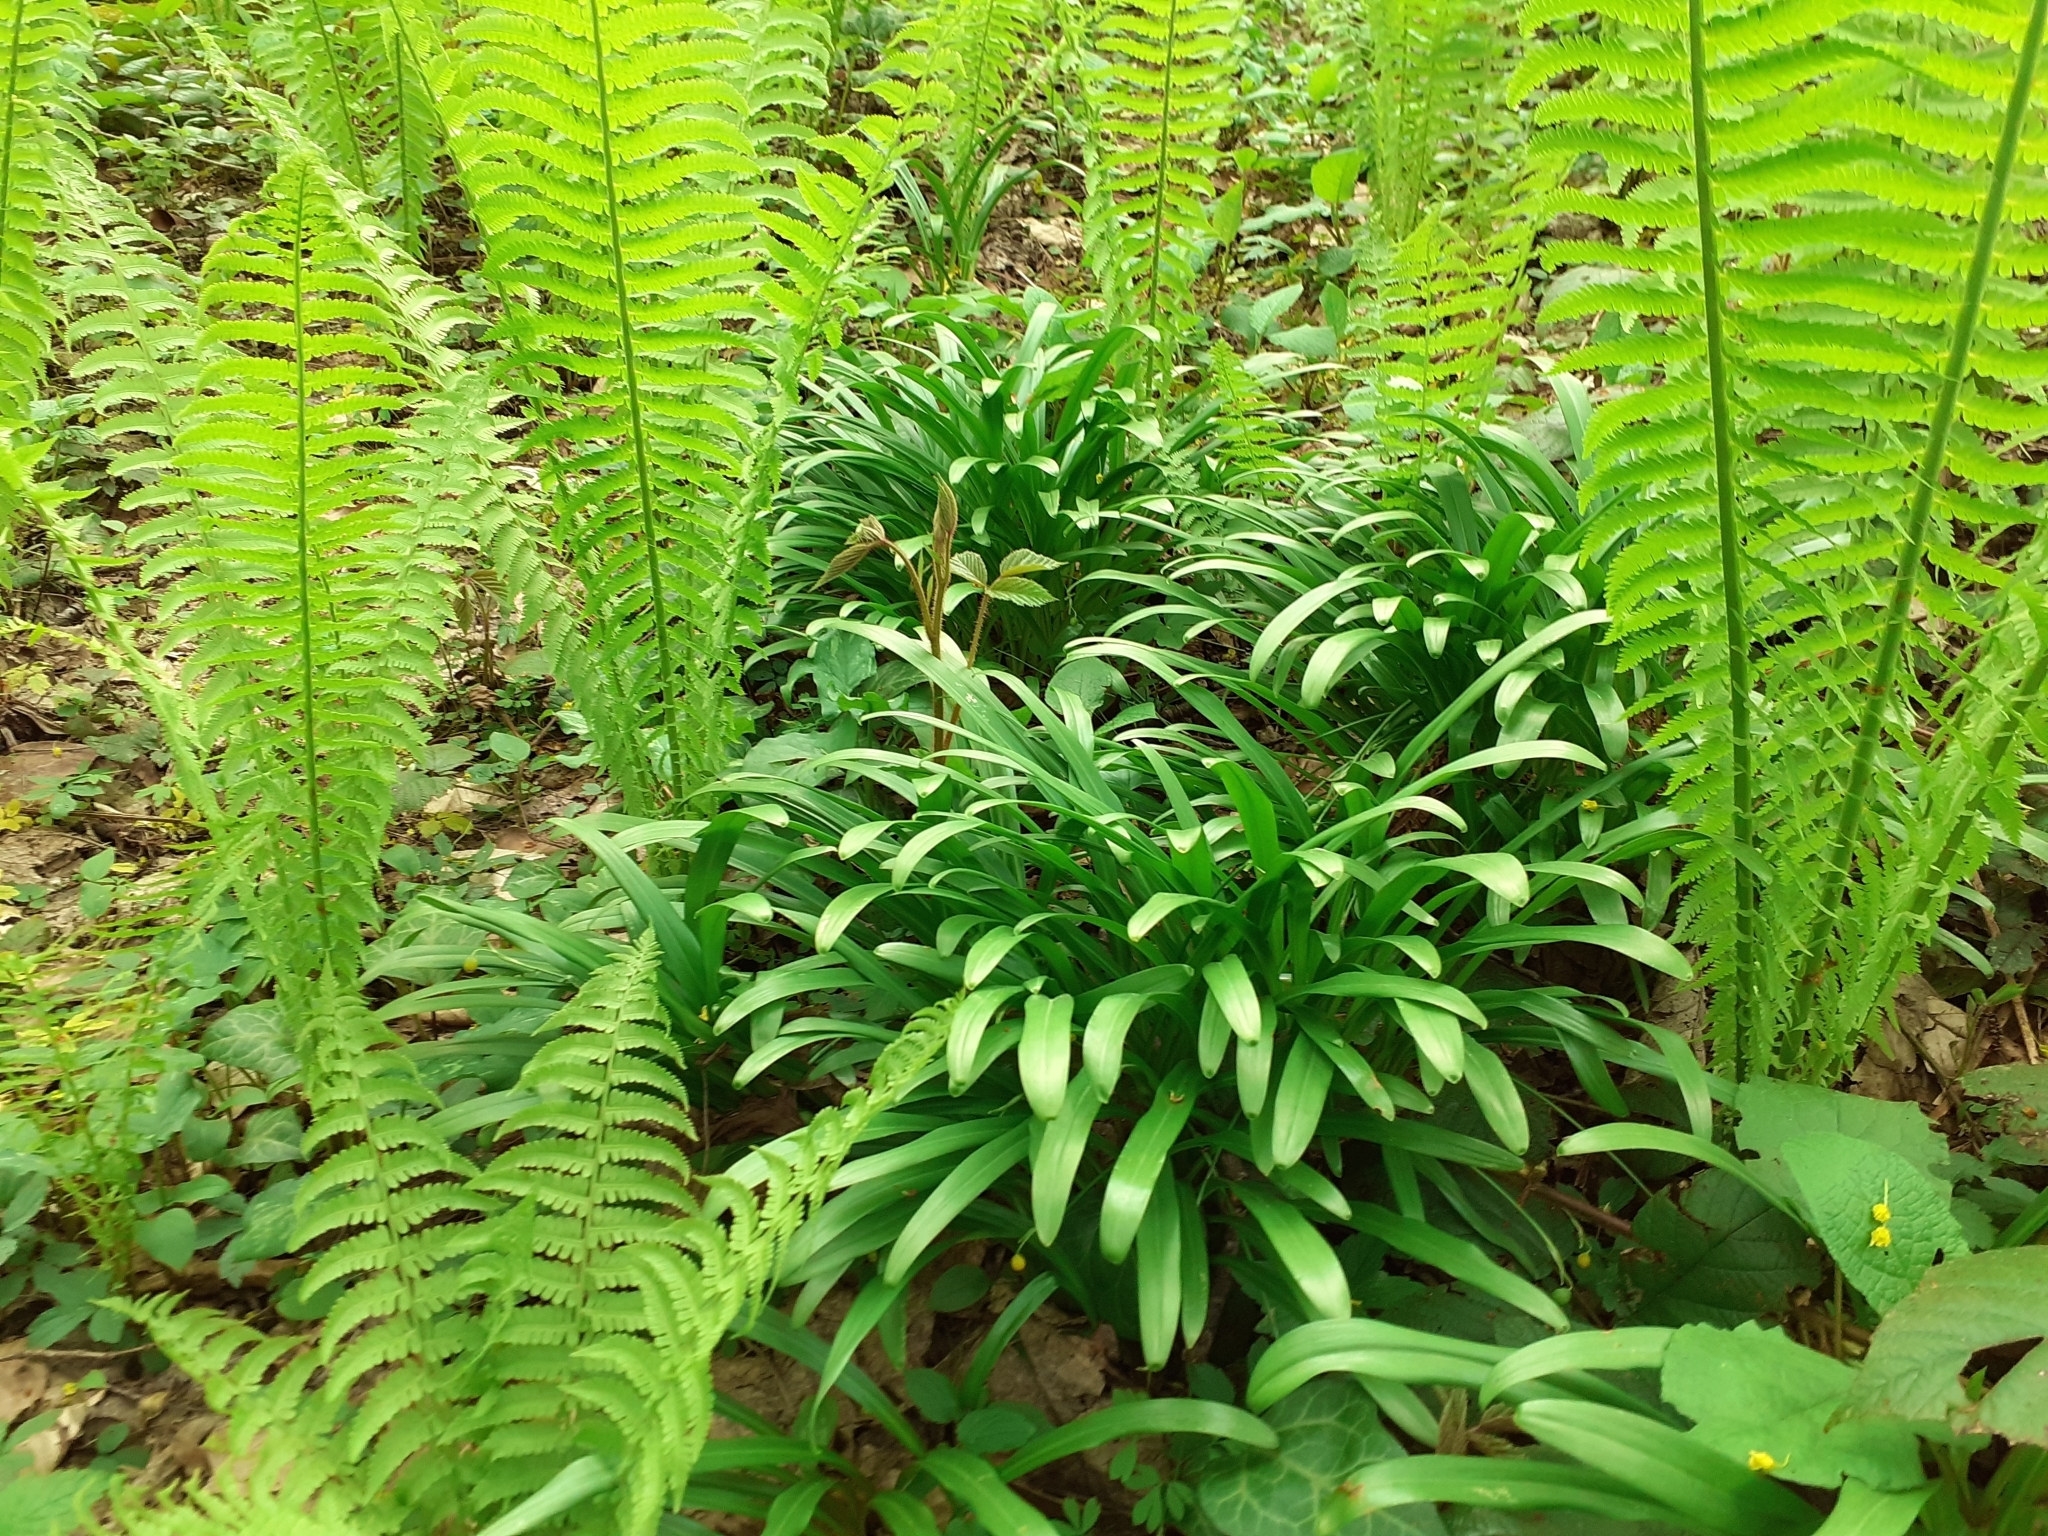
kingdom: Plantae
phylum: Tracheophyta
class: Liliopsida
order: Asparagales
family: Amaryllidaceae
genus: Galanthus
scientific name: Galanthus woronowii
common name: Green snowdrop
